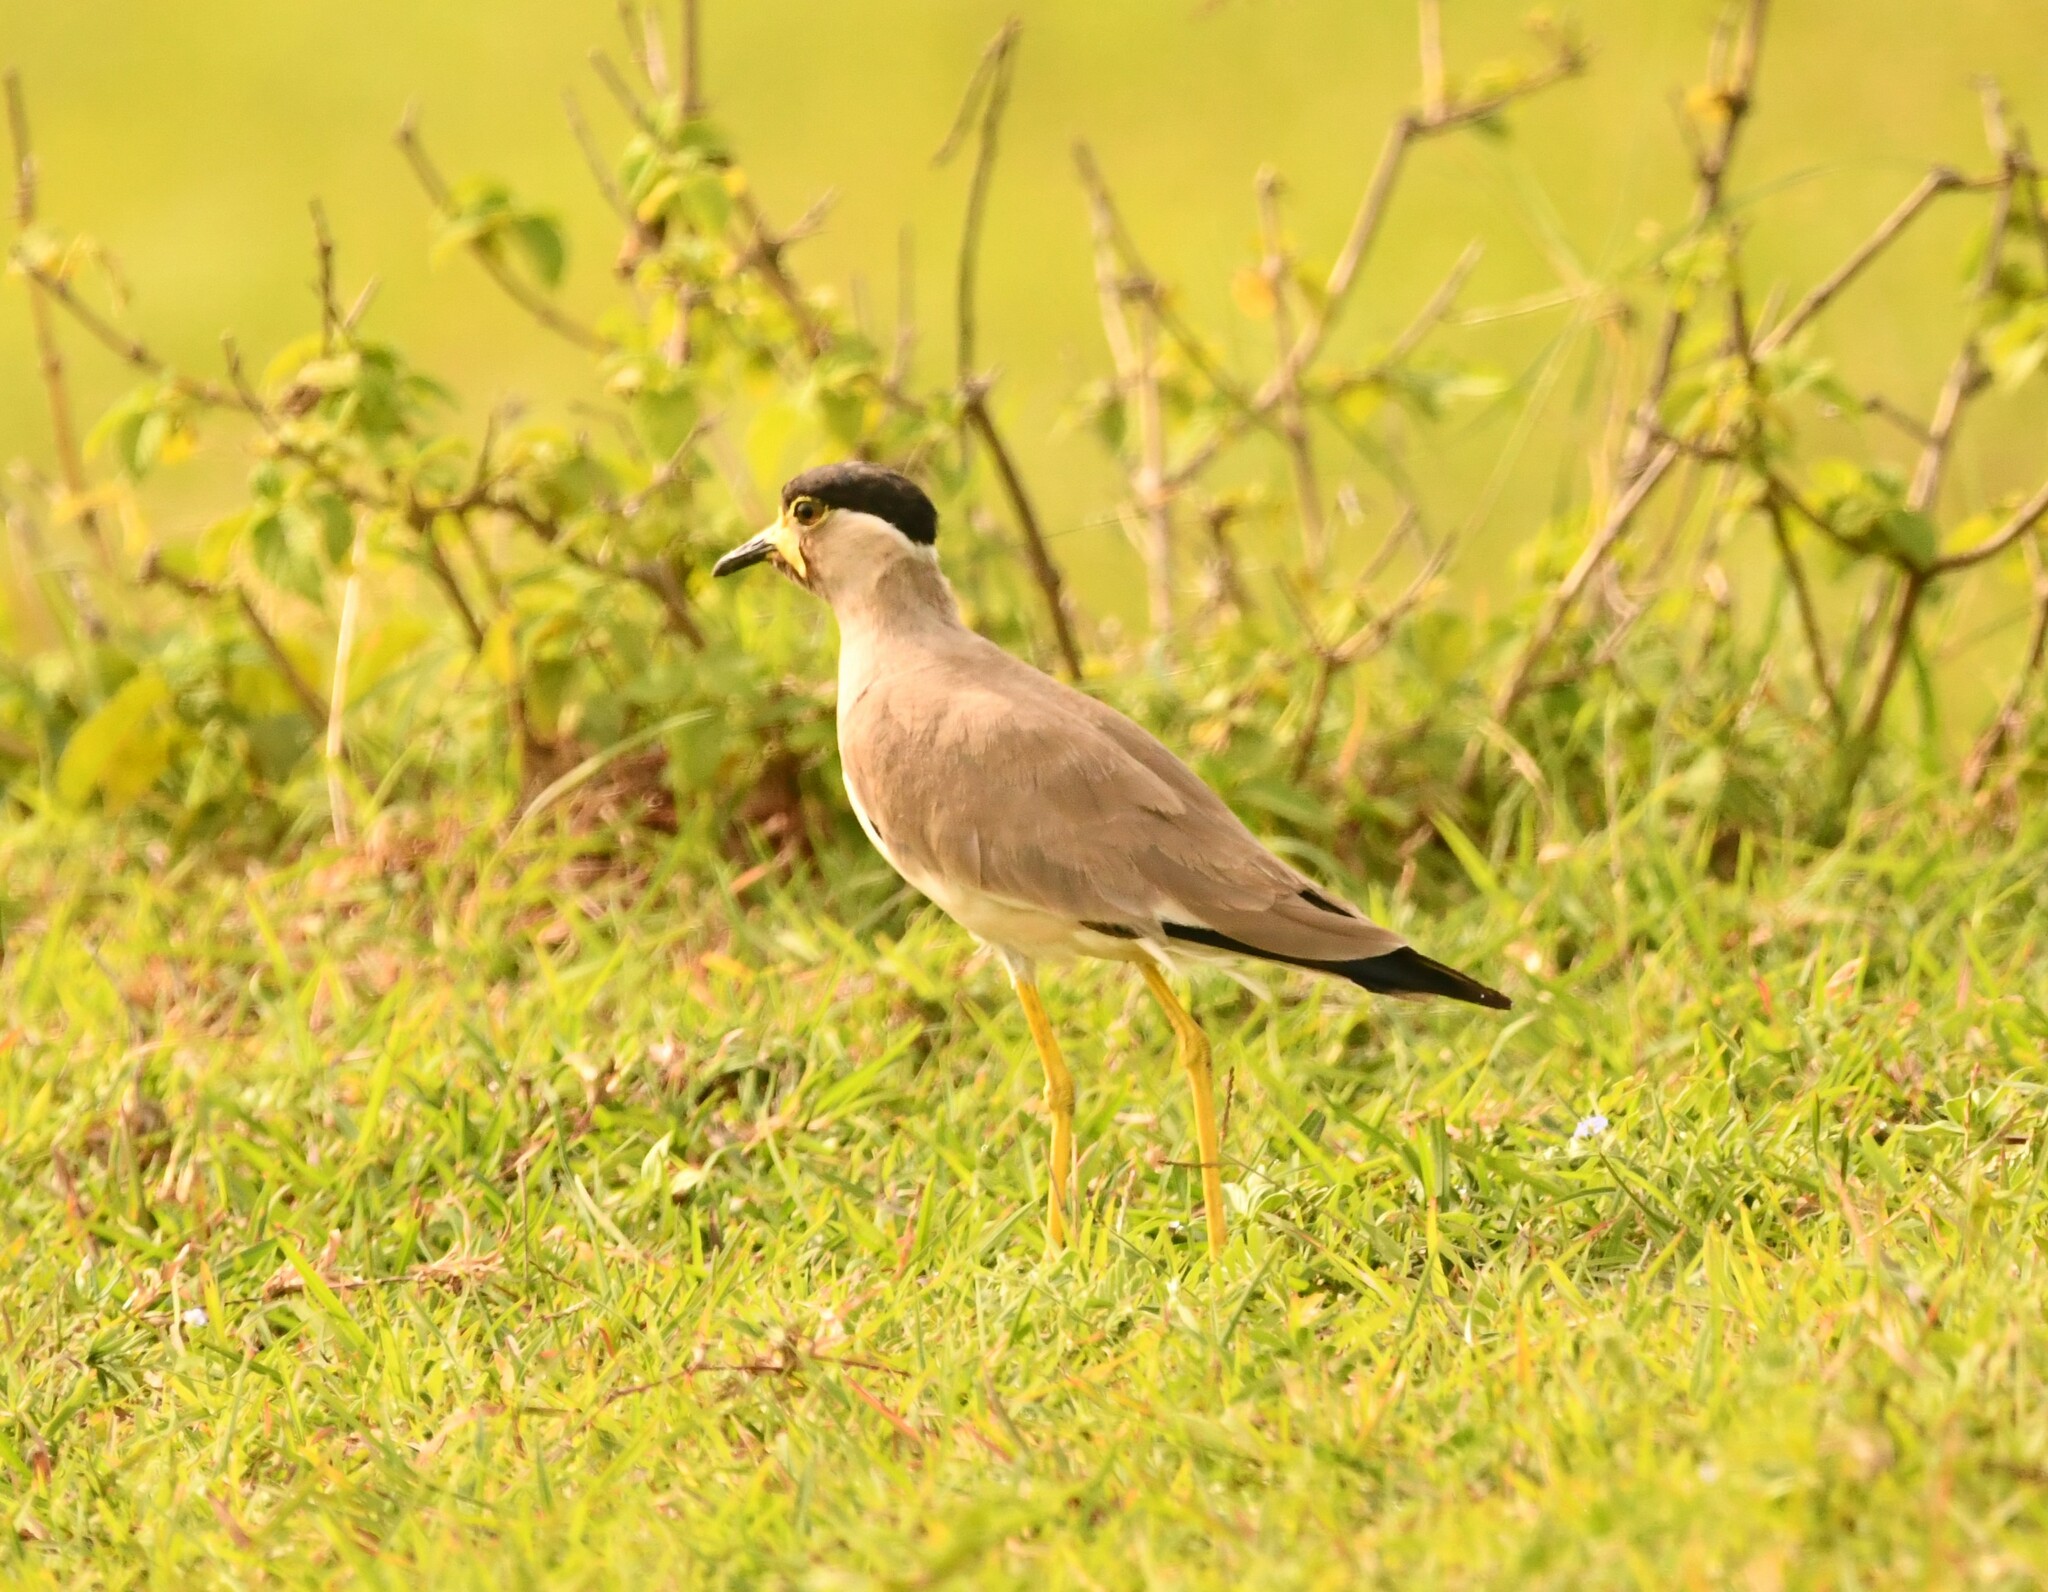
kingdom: Animalia
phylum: Chordata
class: Aves
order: Charadriiformes
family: Charadriidae
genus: Vanellus
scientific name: Vanellus malabaricus
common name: Yellow-wattled lapwing
